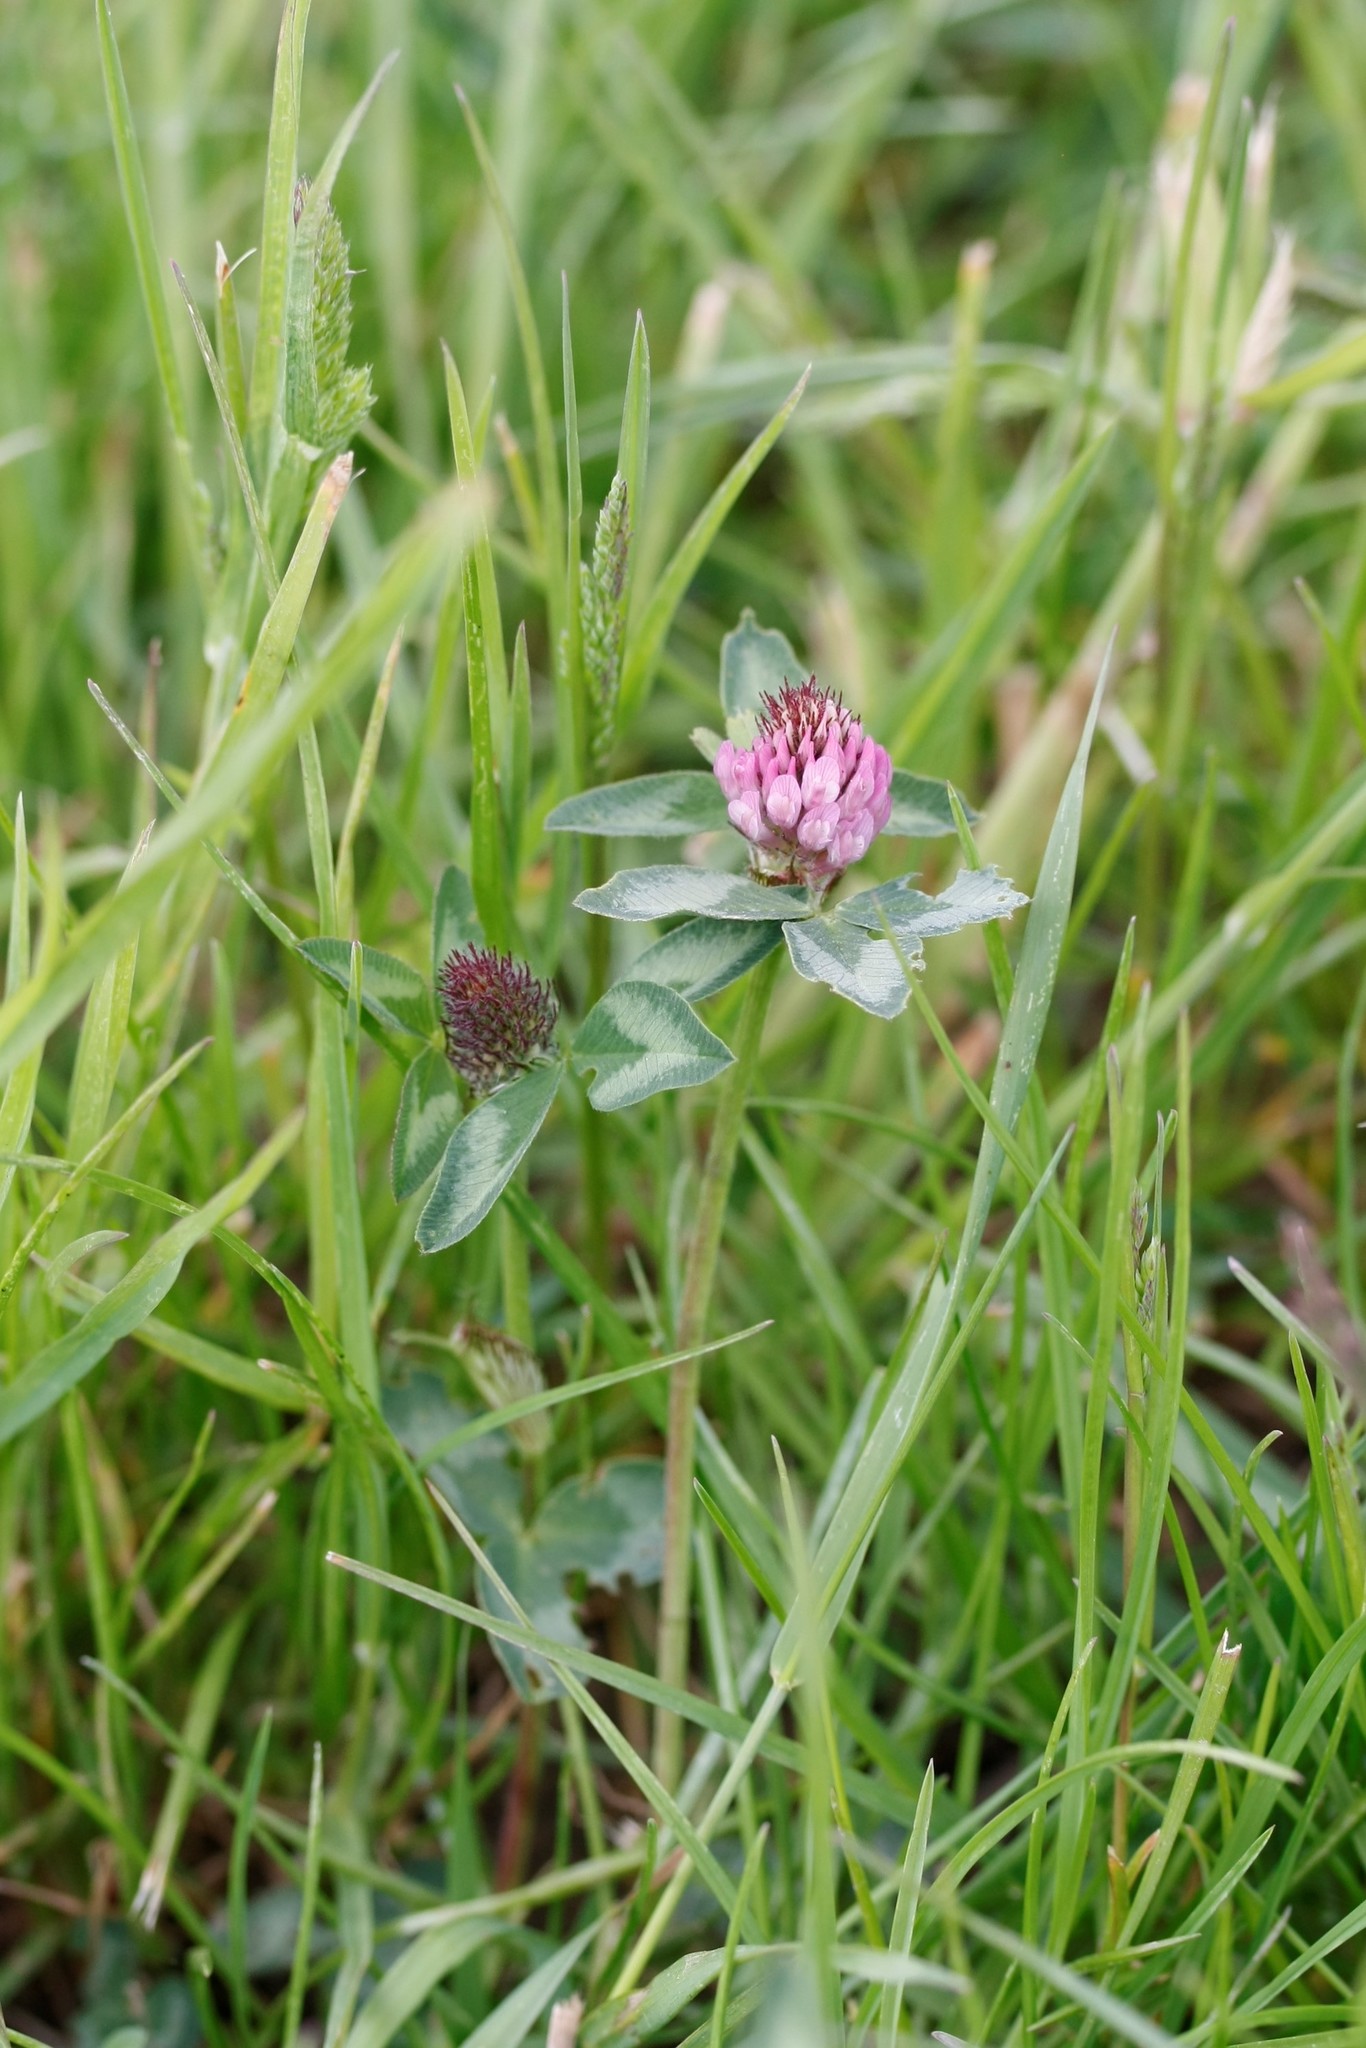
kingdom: Plantae
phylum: Tracheophyta
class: Magnoliopsida
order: Fabales
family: Fabaceae
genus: Trifolium
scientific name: Trifolium pratense
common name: Red clover
